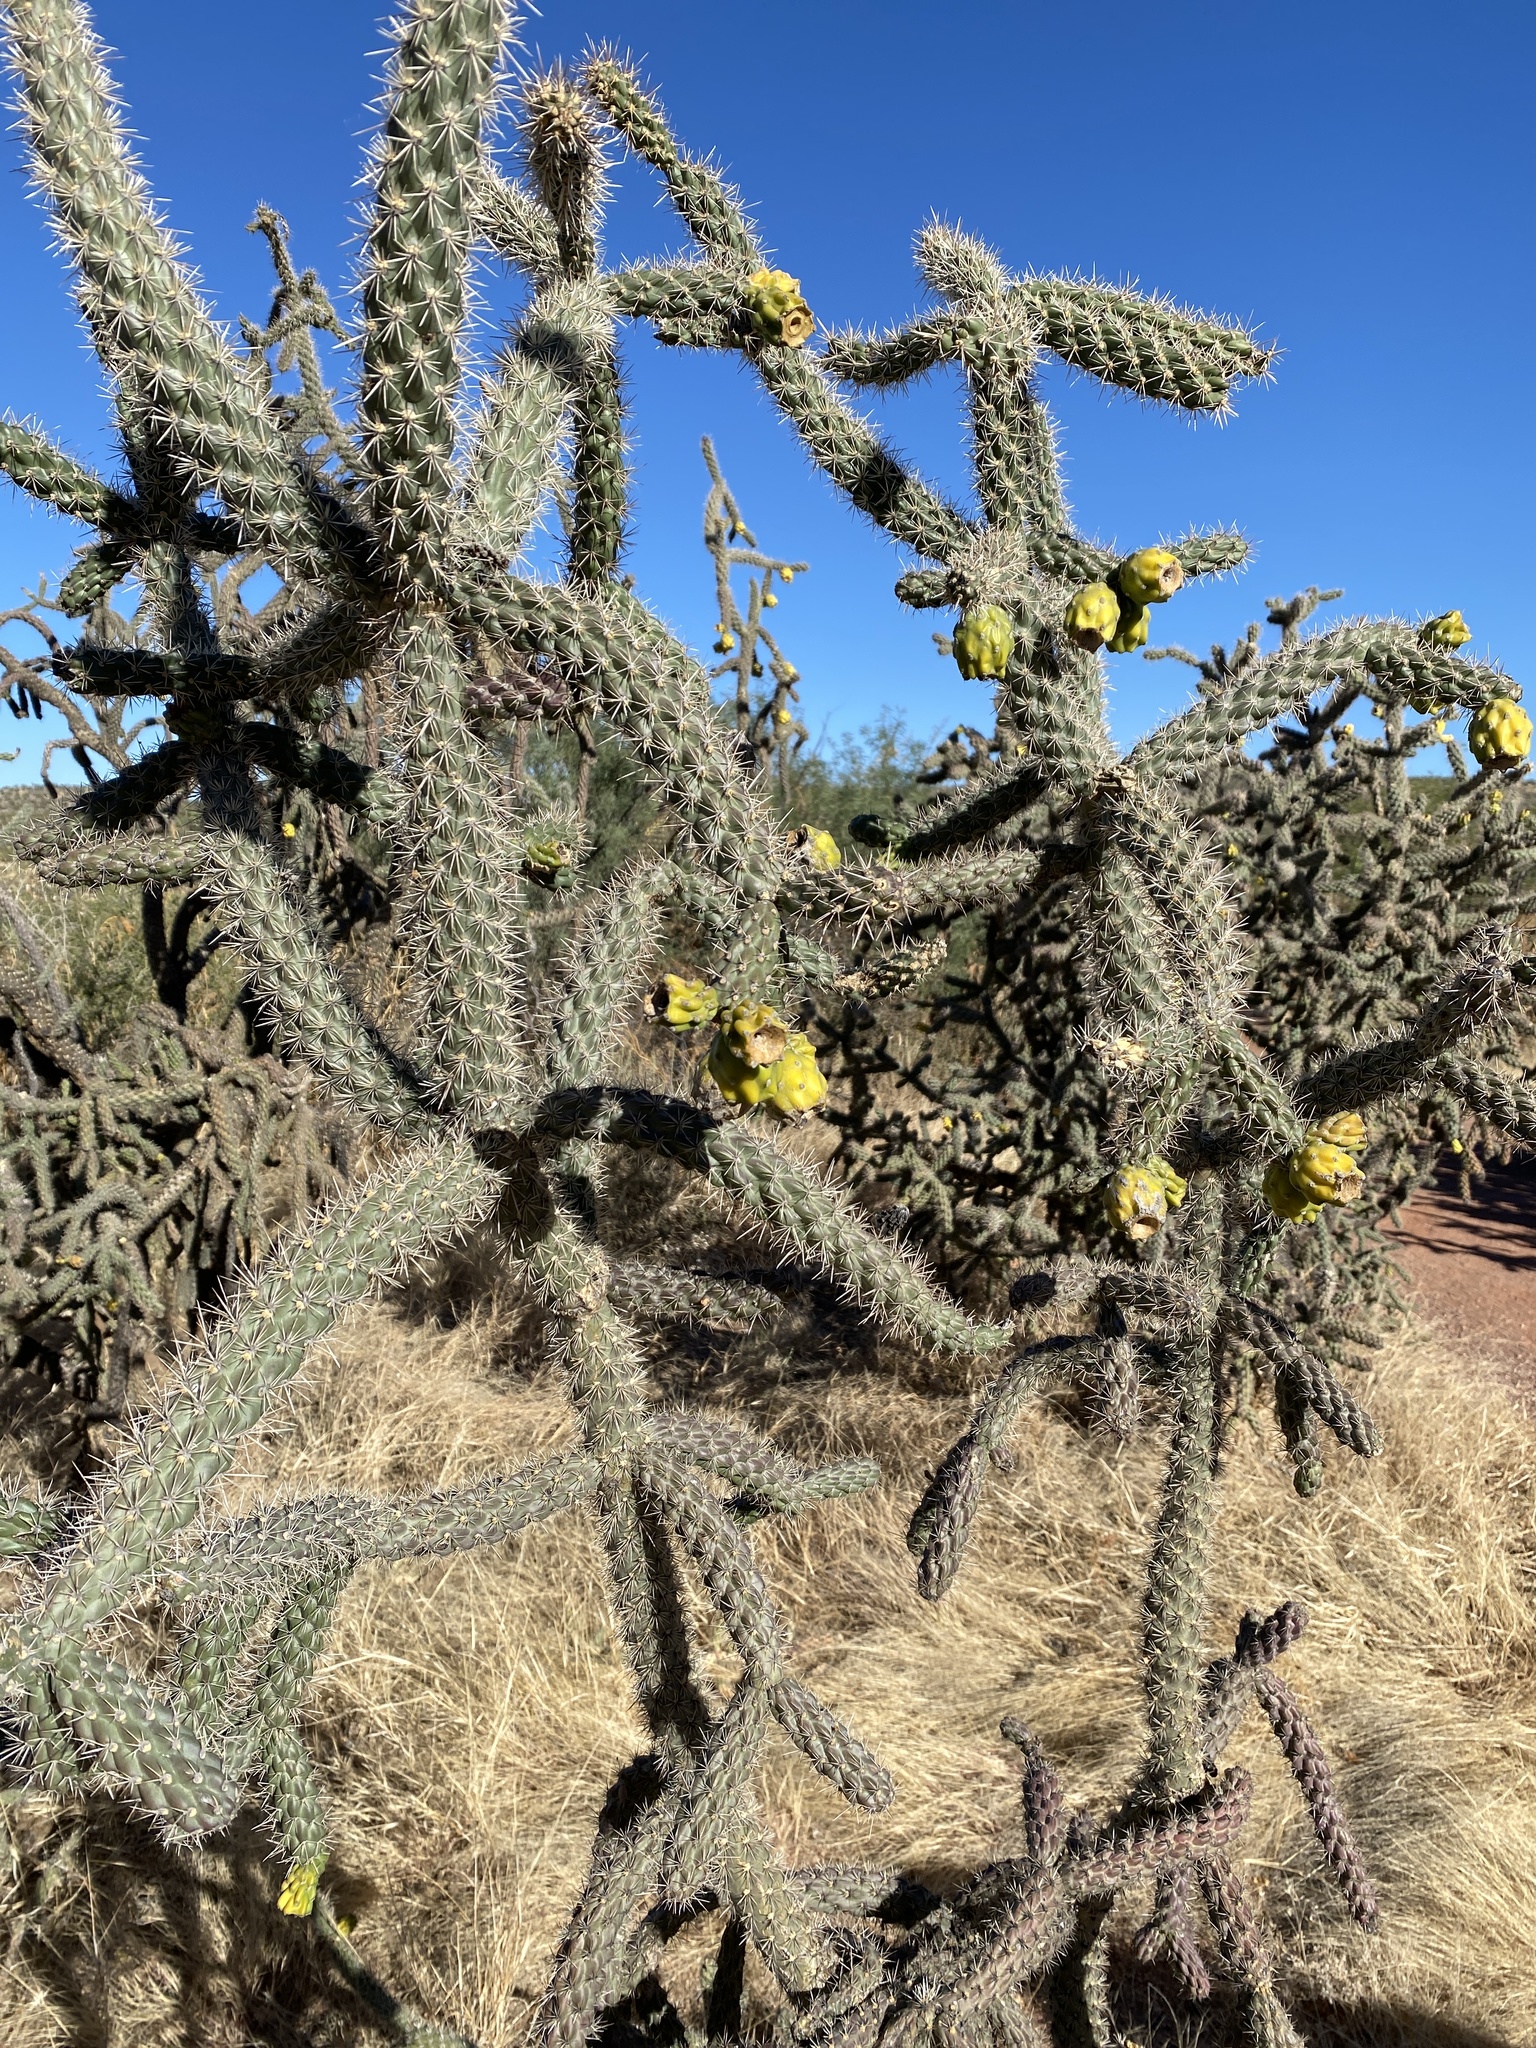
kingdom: Plantae
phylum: Tracheophyta
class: Magnoliopsida
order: Caryophyllales
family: Cactaceae
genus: Cylindropuntia
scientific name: Cylindropuntia imbricata
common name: Candelabrum cactus
